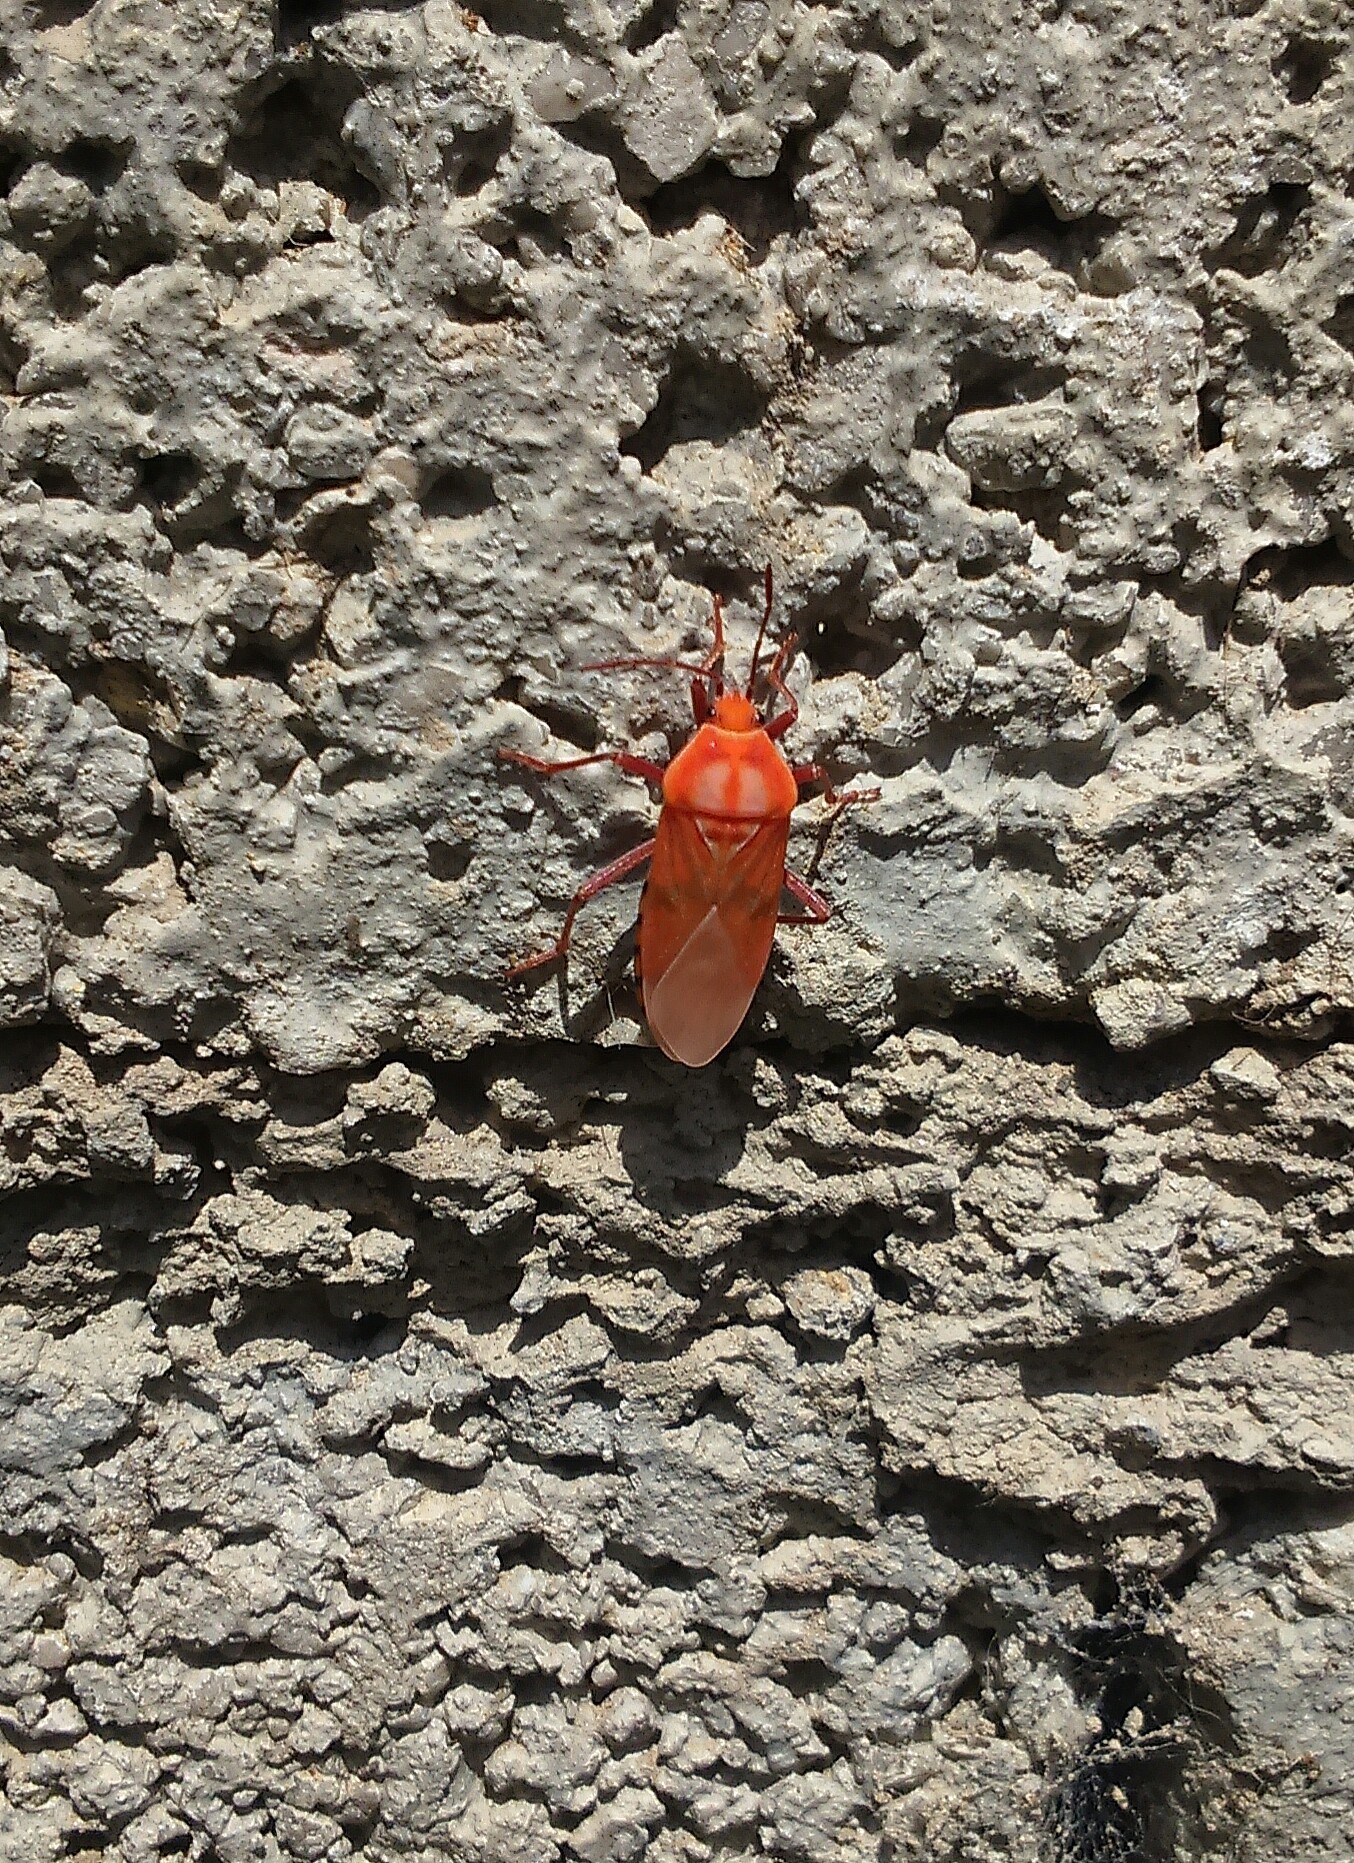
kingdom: Animalia
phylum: Arthropoda
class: Insecta
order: Hemiptera
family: Lygaeidae
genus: Spilostethus
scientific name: Spilostethus pandurus
